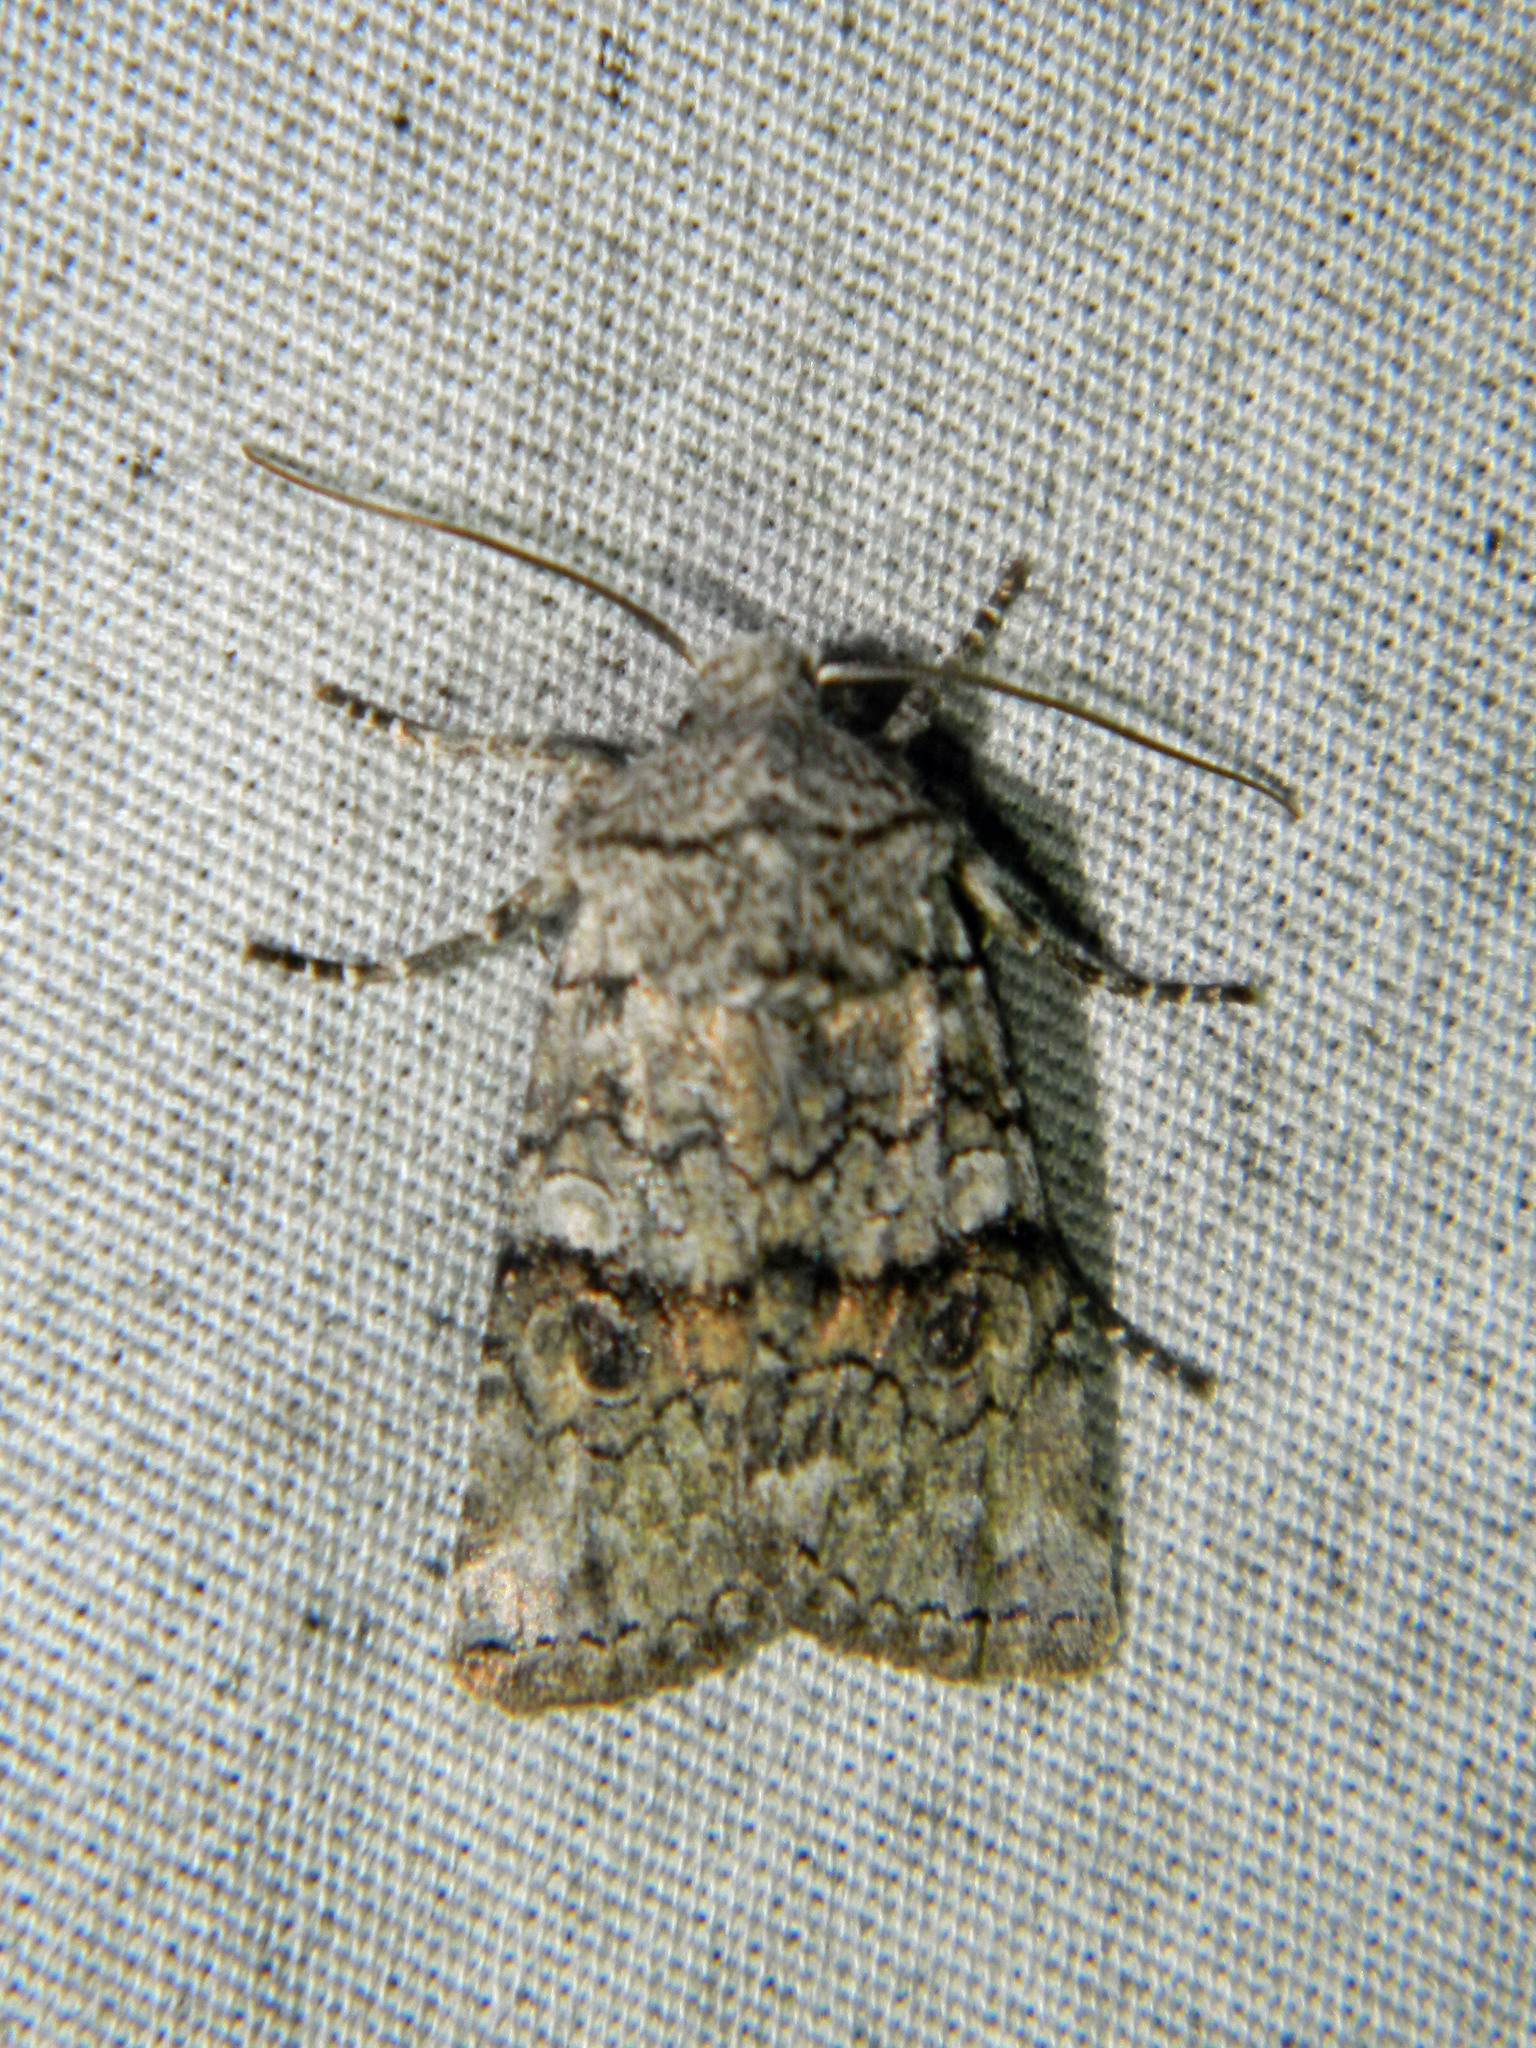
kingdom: Animalia
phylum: Arthropoda
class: Insecta
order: Lepidoptera
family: Noctuidae
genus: Litholomia
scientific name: Litholomia napaea
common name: False pinion moth
